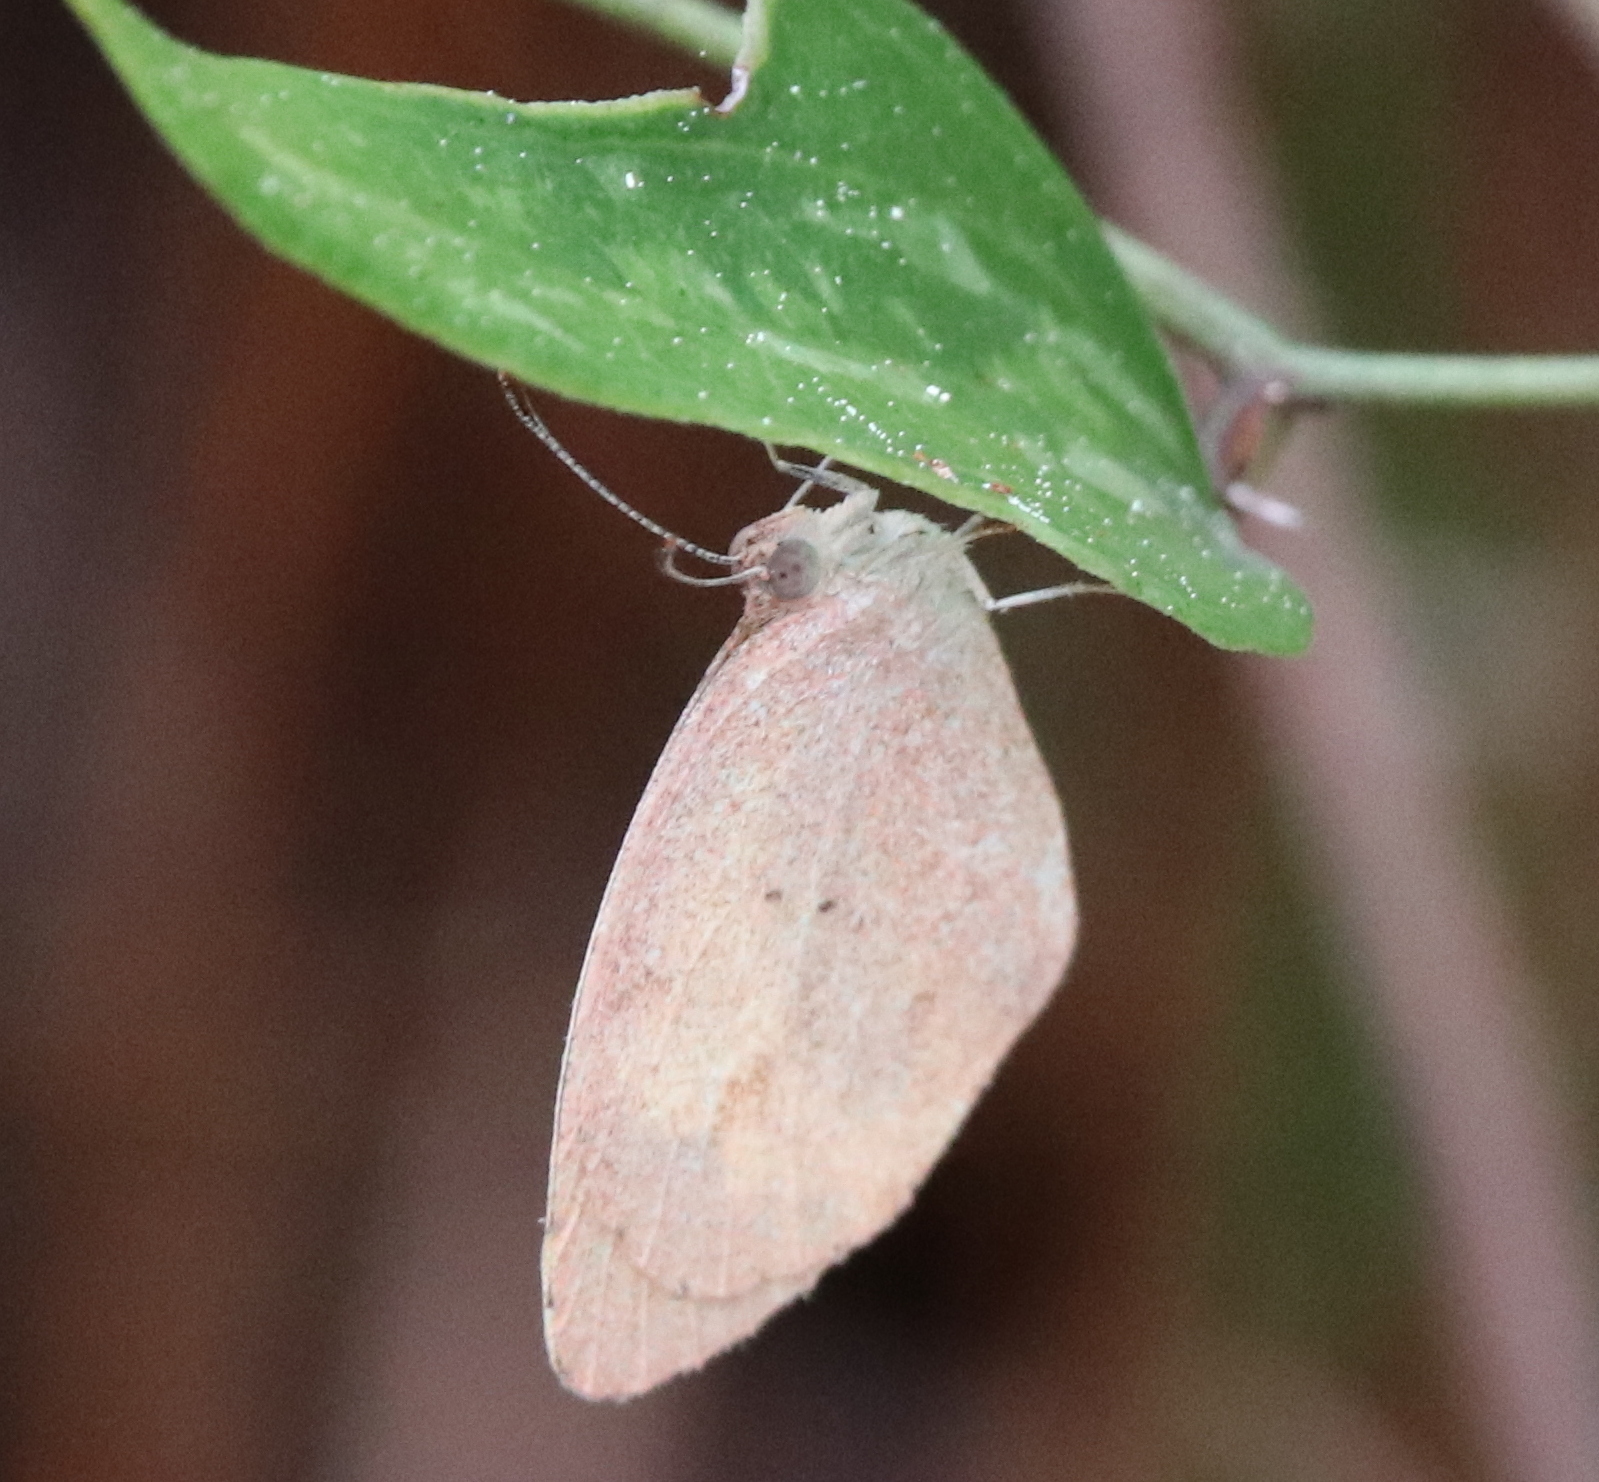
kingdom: Animalia
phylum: Arthropoda
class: Insecta
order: Lepidoptera
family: Pieridae
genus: Eurema
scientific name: Eurema daira
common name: Barred sulphur
